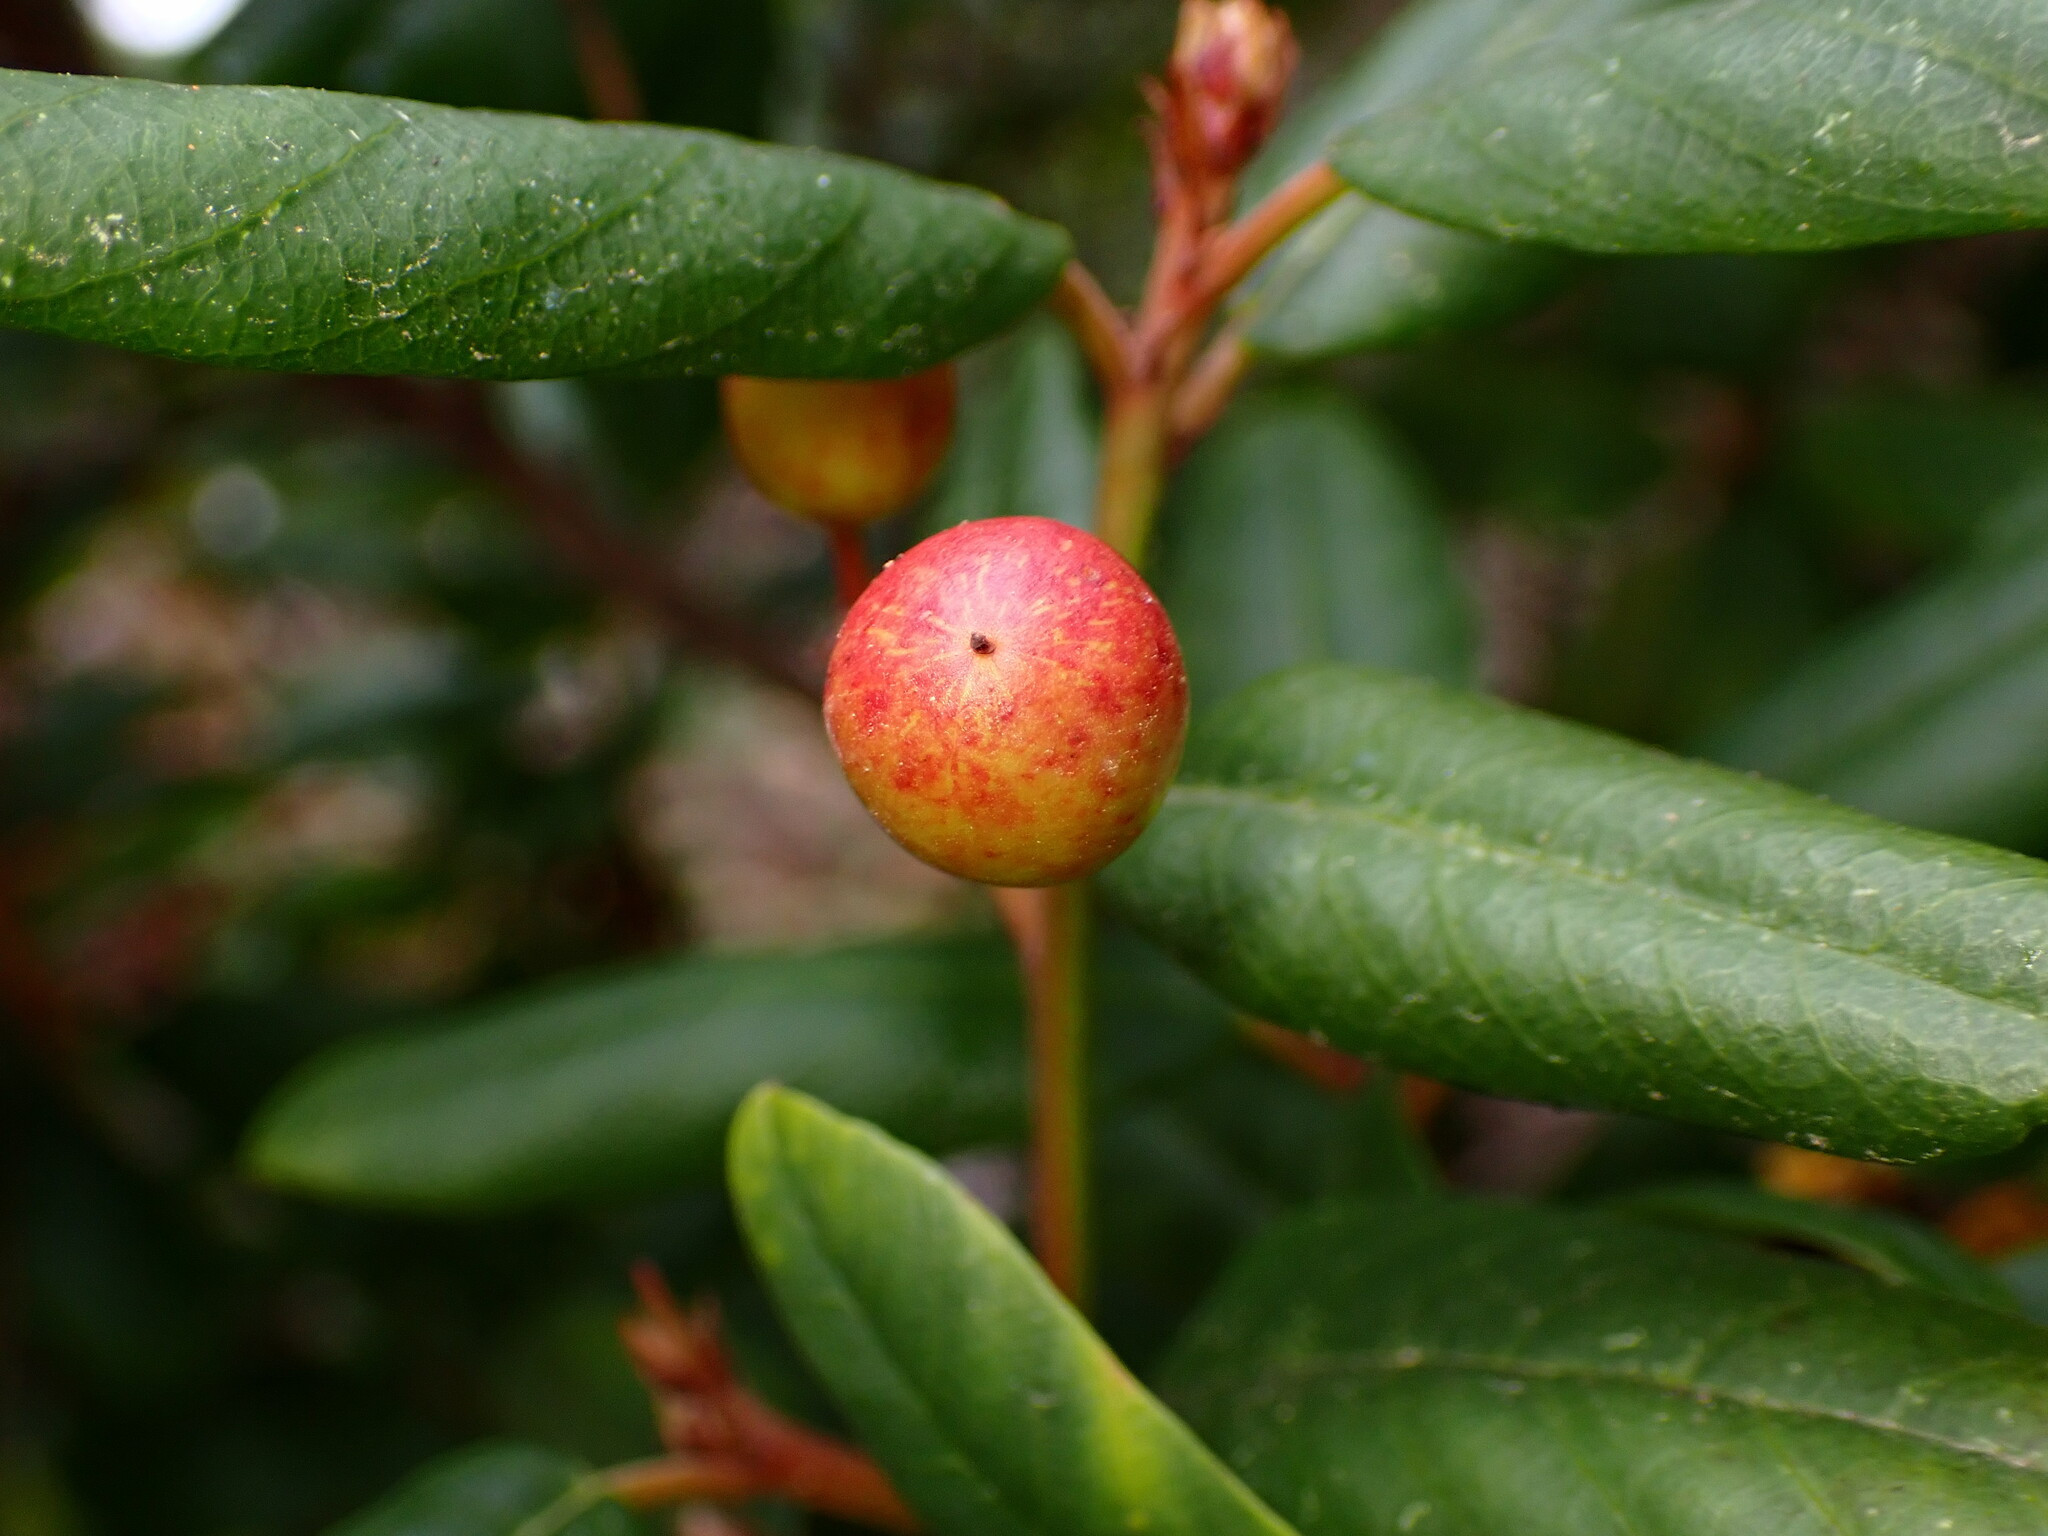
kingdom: Plantae
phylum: Tracheophyta
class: Magnoliopsida
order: Rosales
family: Rhamnaceae
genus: Frangula
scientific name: Frangula californica
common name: California buckthorn
